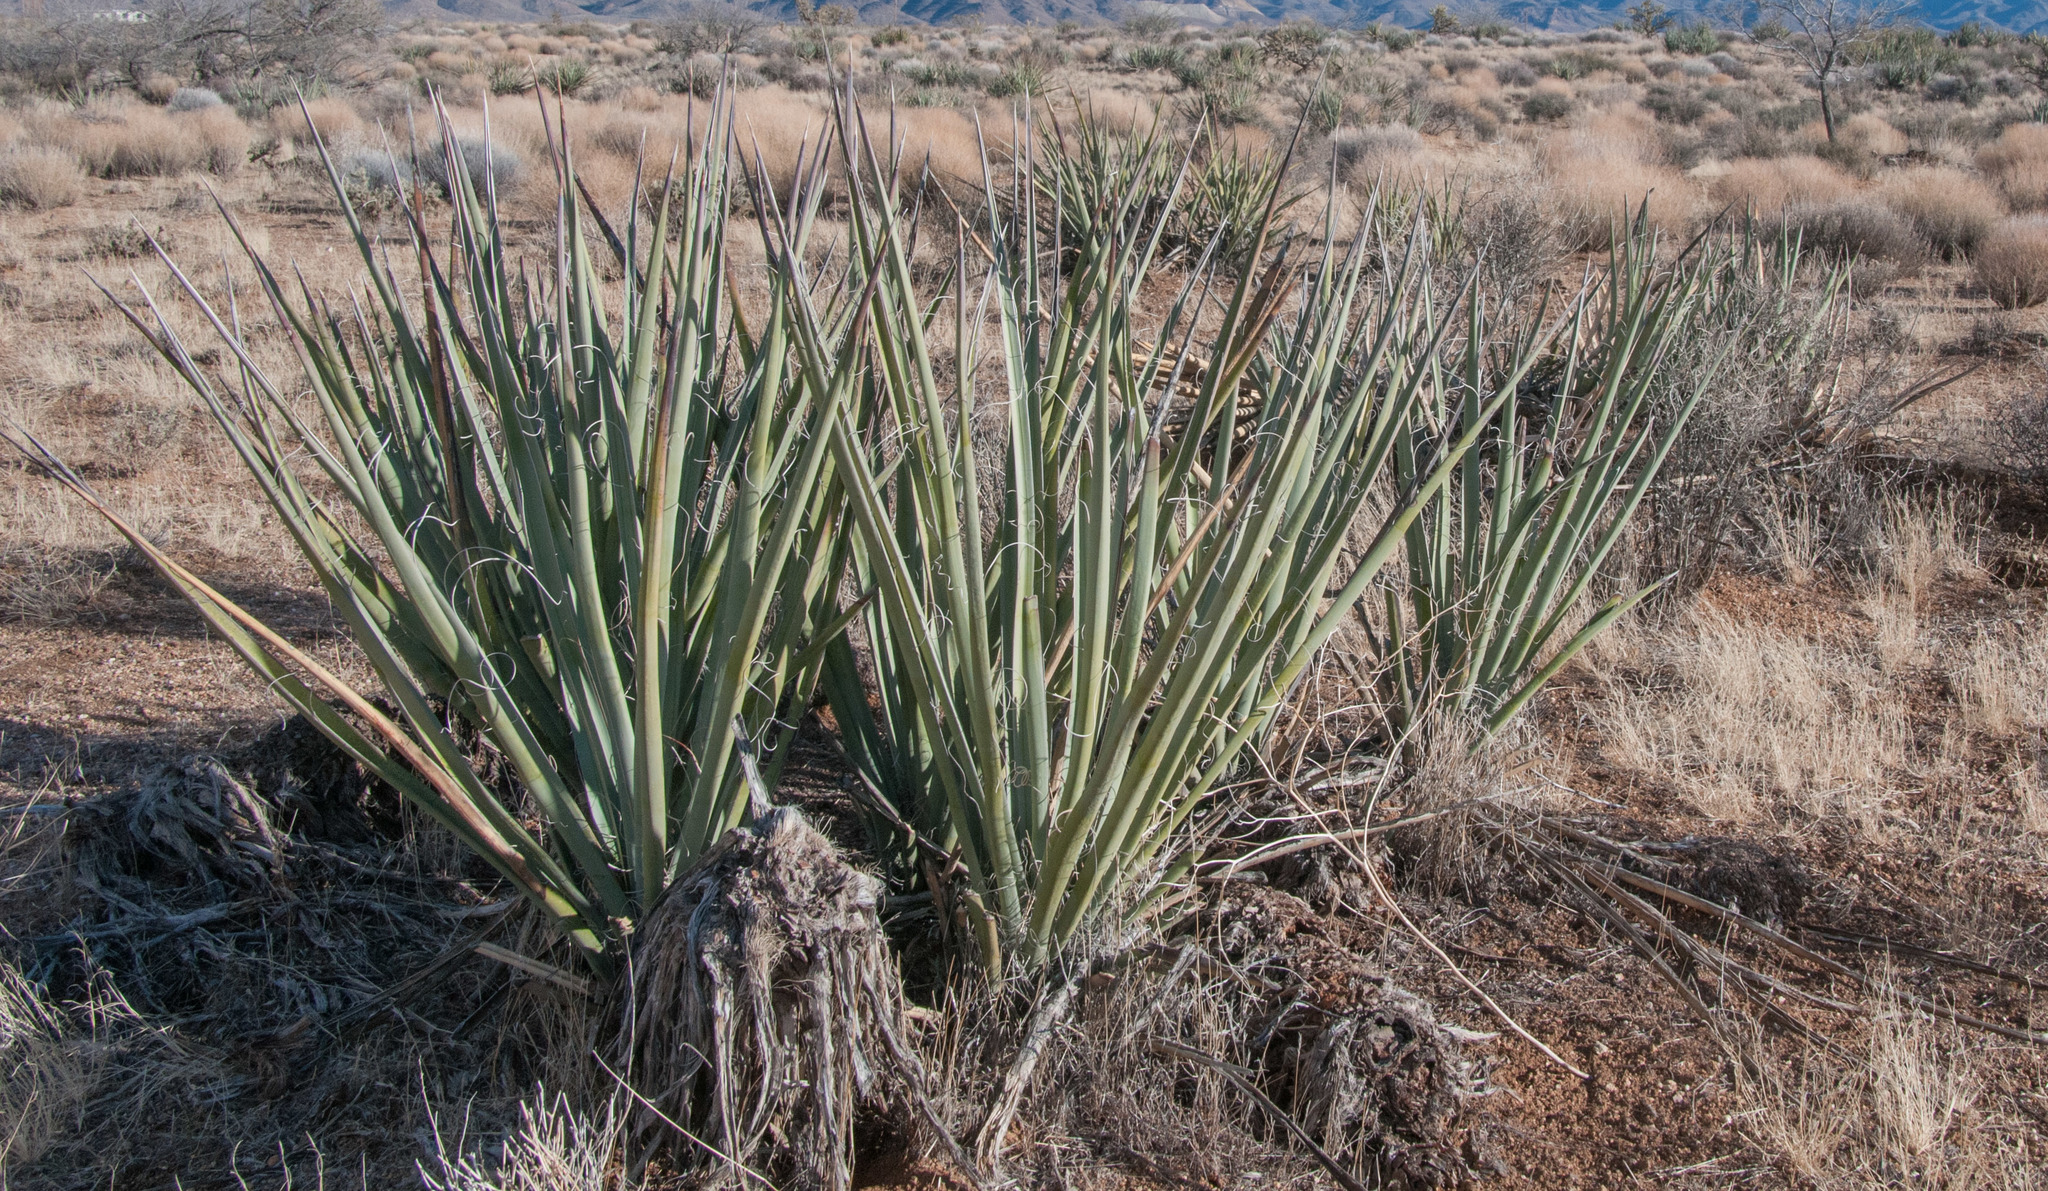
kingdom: Plantae
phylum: Tracheophyta
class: Liliopsida
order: Asparagales
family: Asparagaceae
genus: Yucca
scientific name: Yucca baccata
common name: Banana yucca
